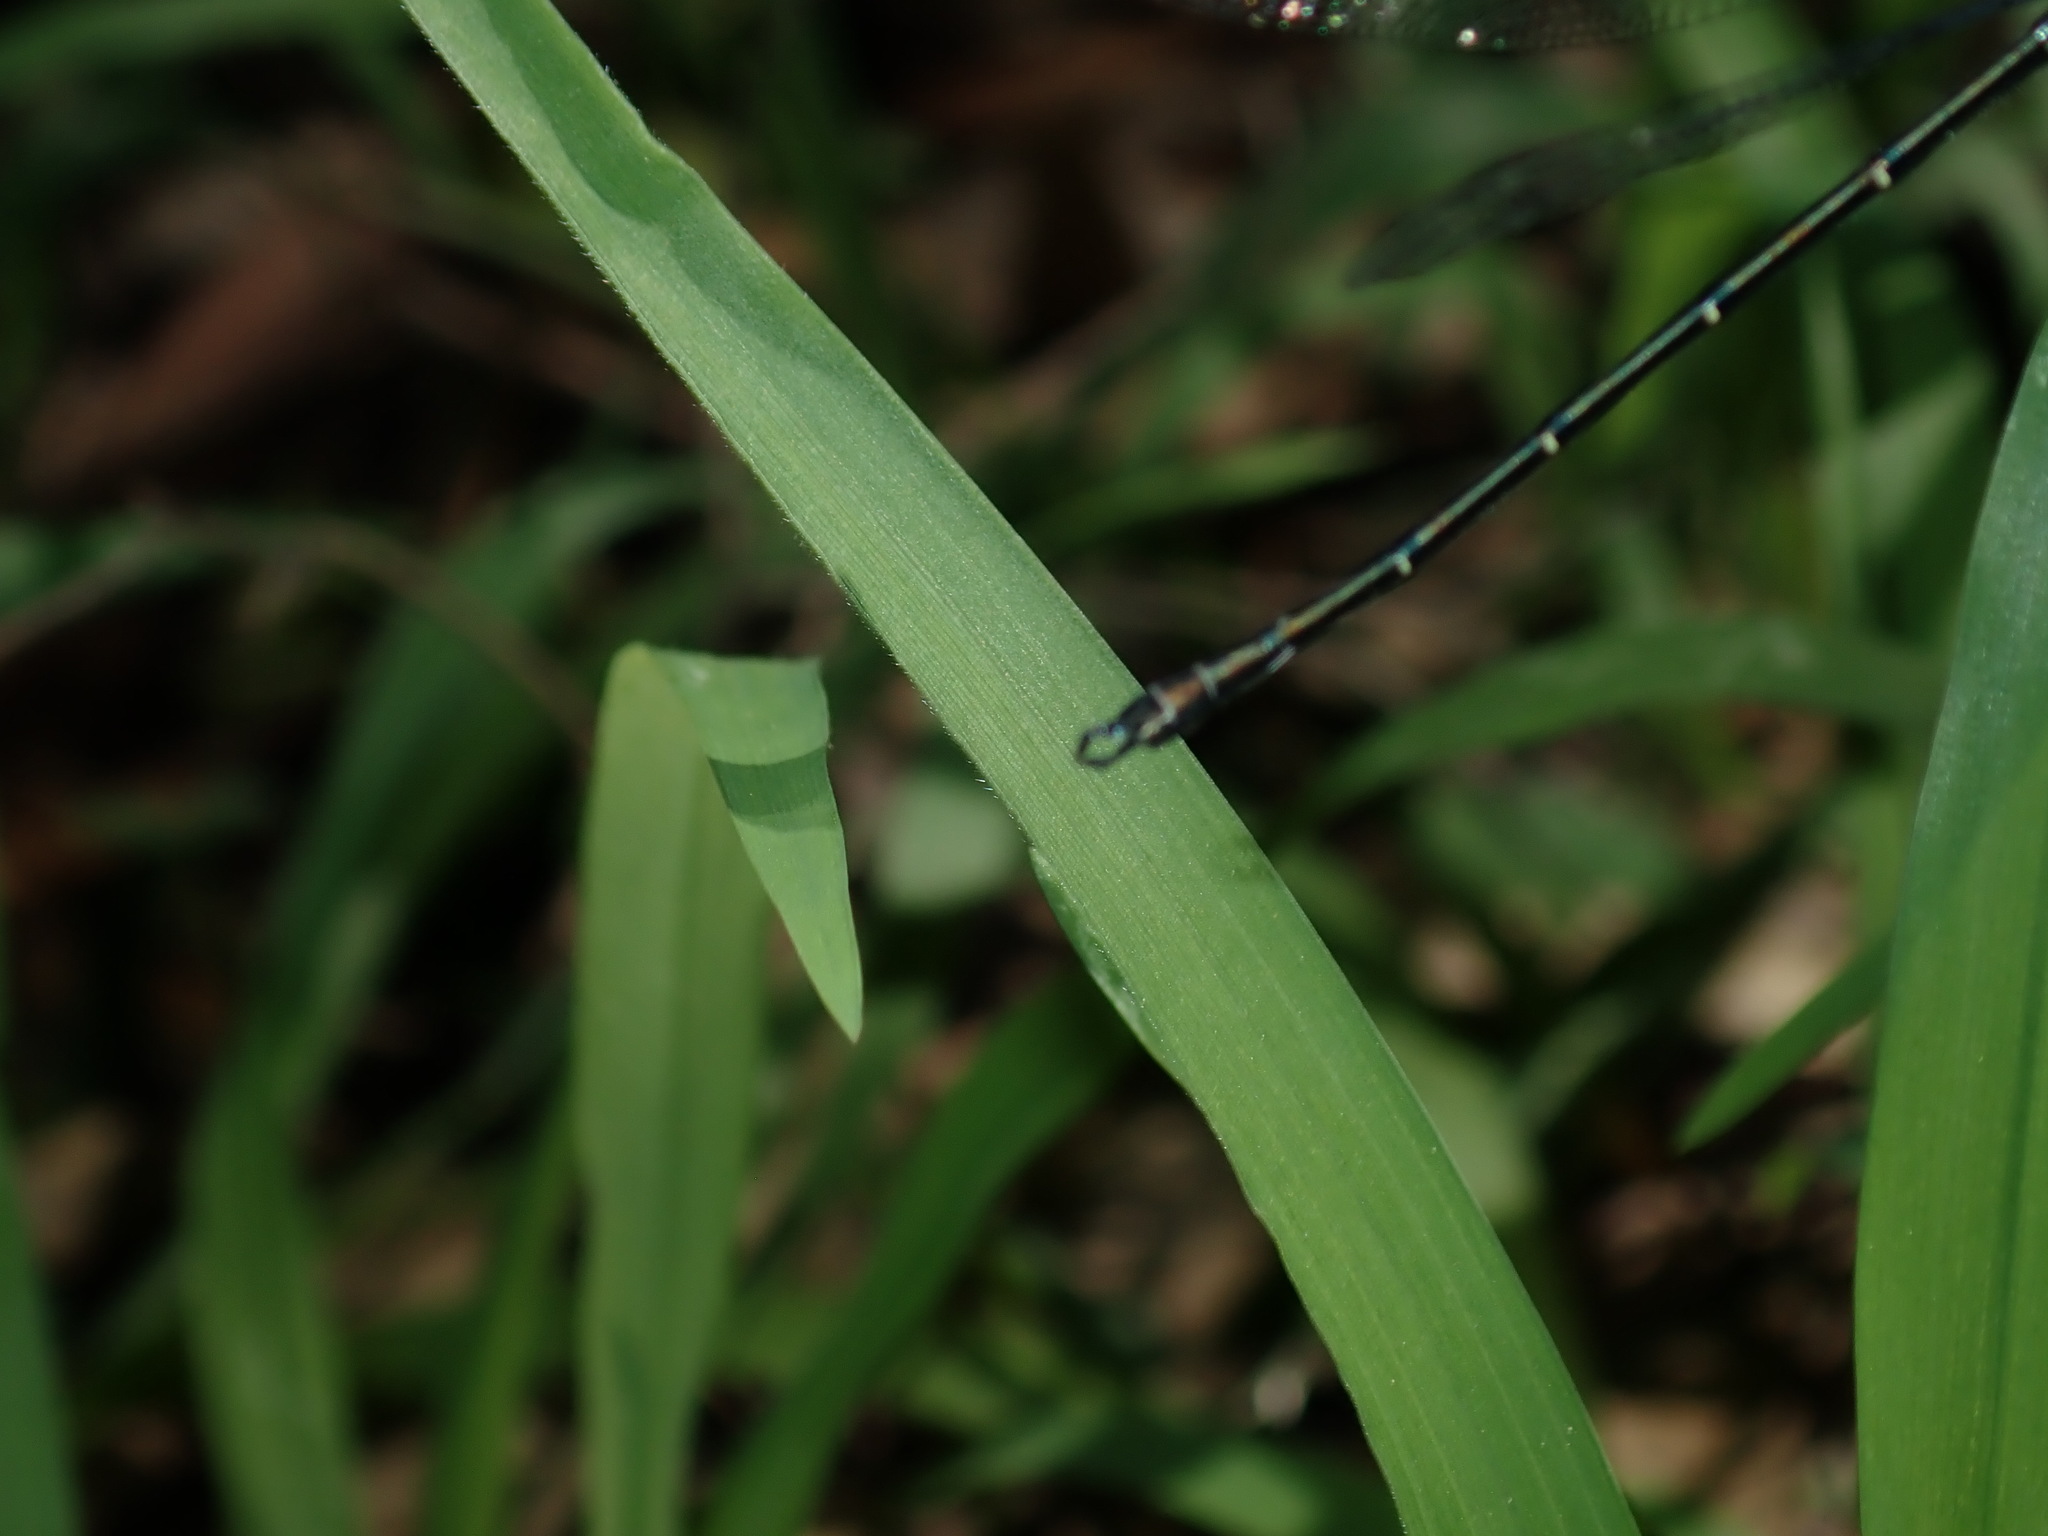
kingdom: Animalia
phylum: Arthropoda
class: Insecta
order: Odonata
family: Argiolestidae
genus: Austroargiolestes
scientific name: Austroargiolestes icteromelas
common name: Common flatwing
